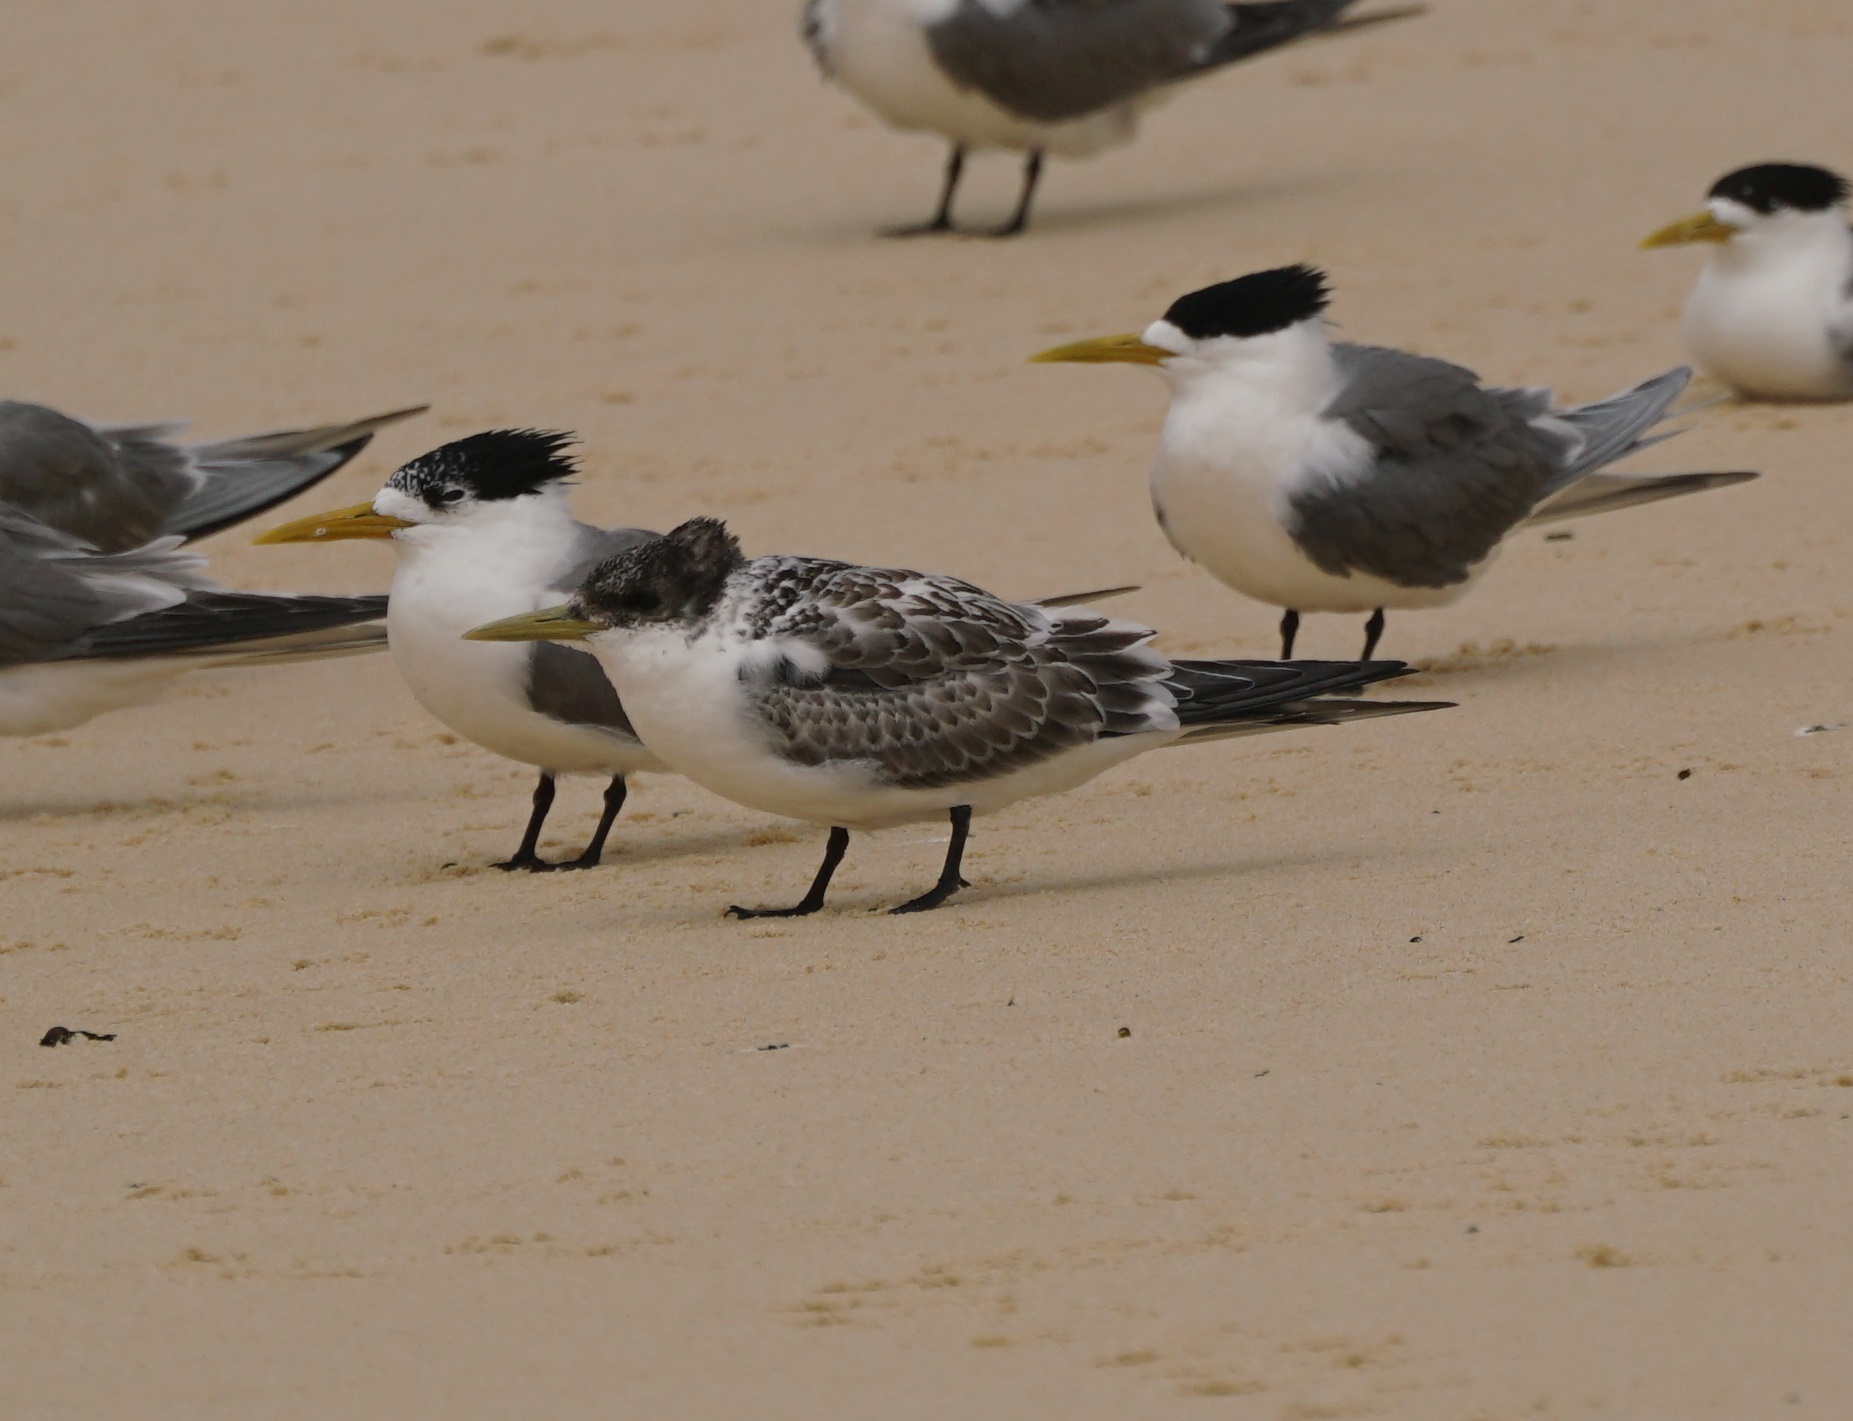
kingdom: Animalia
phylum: Chordata
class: Aves
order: Charadriiformes
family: Laridae
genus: Thalasseus
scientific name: Thalasseus bergii
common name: Greater crested tern
